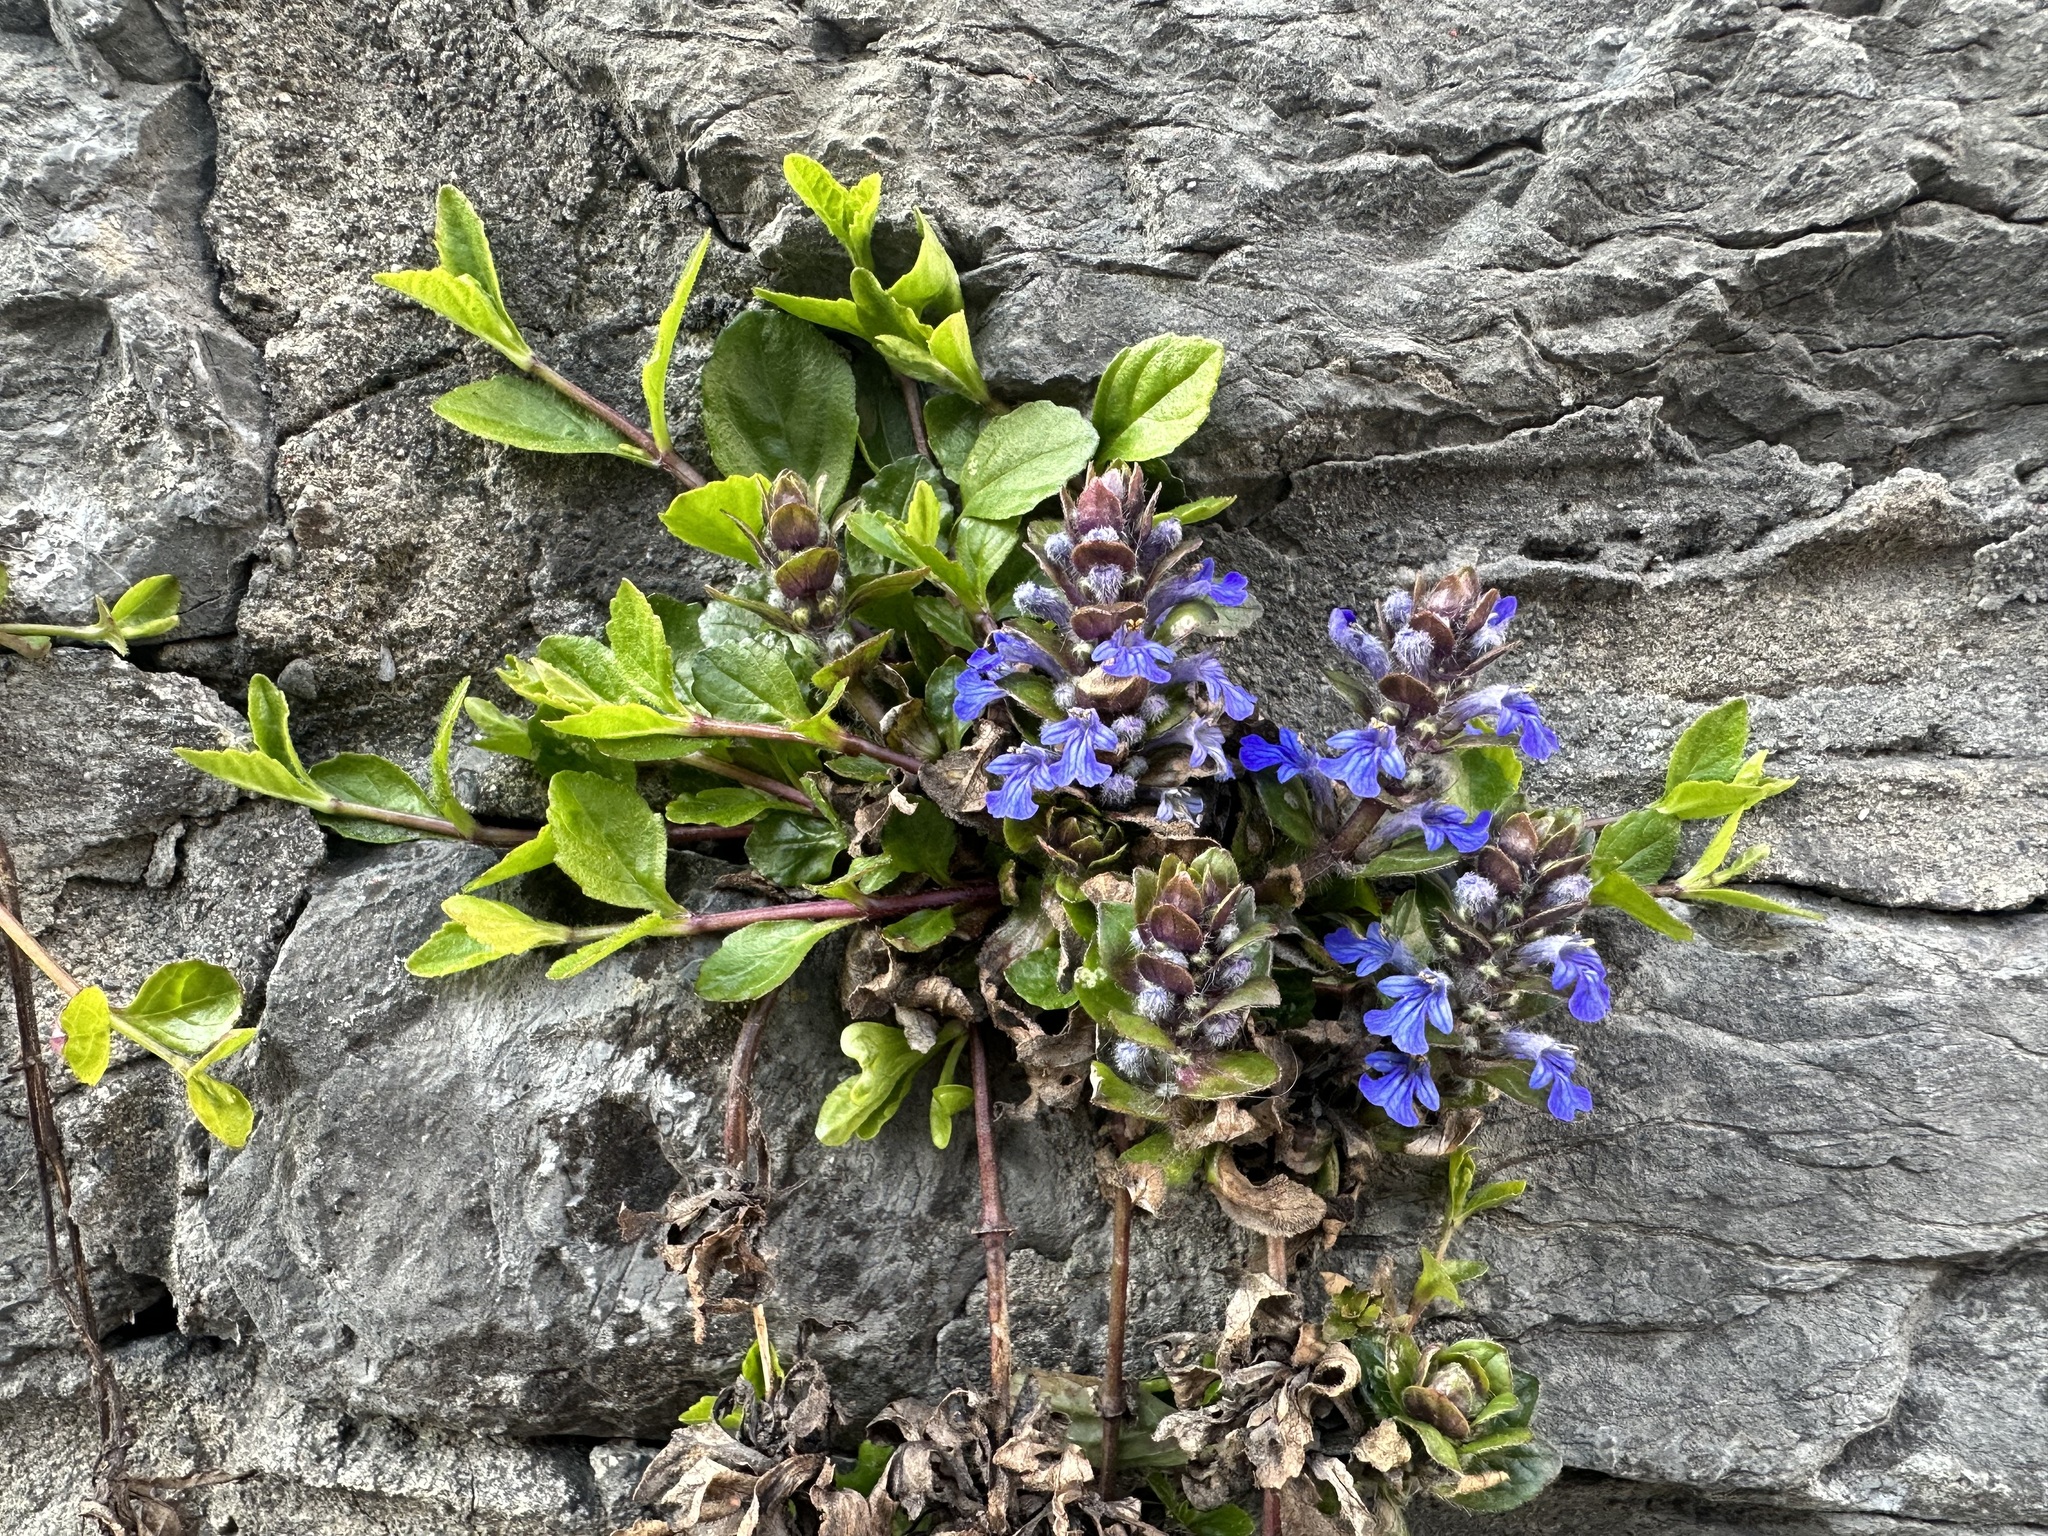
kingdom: Plantae
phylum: Tracheophyta
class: Magnoliopsida
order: Lamiales
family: Lamiaceae
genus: Ajuga
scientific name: Ajuga reptans
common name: Bugle
